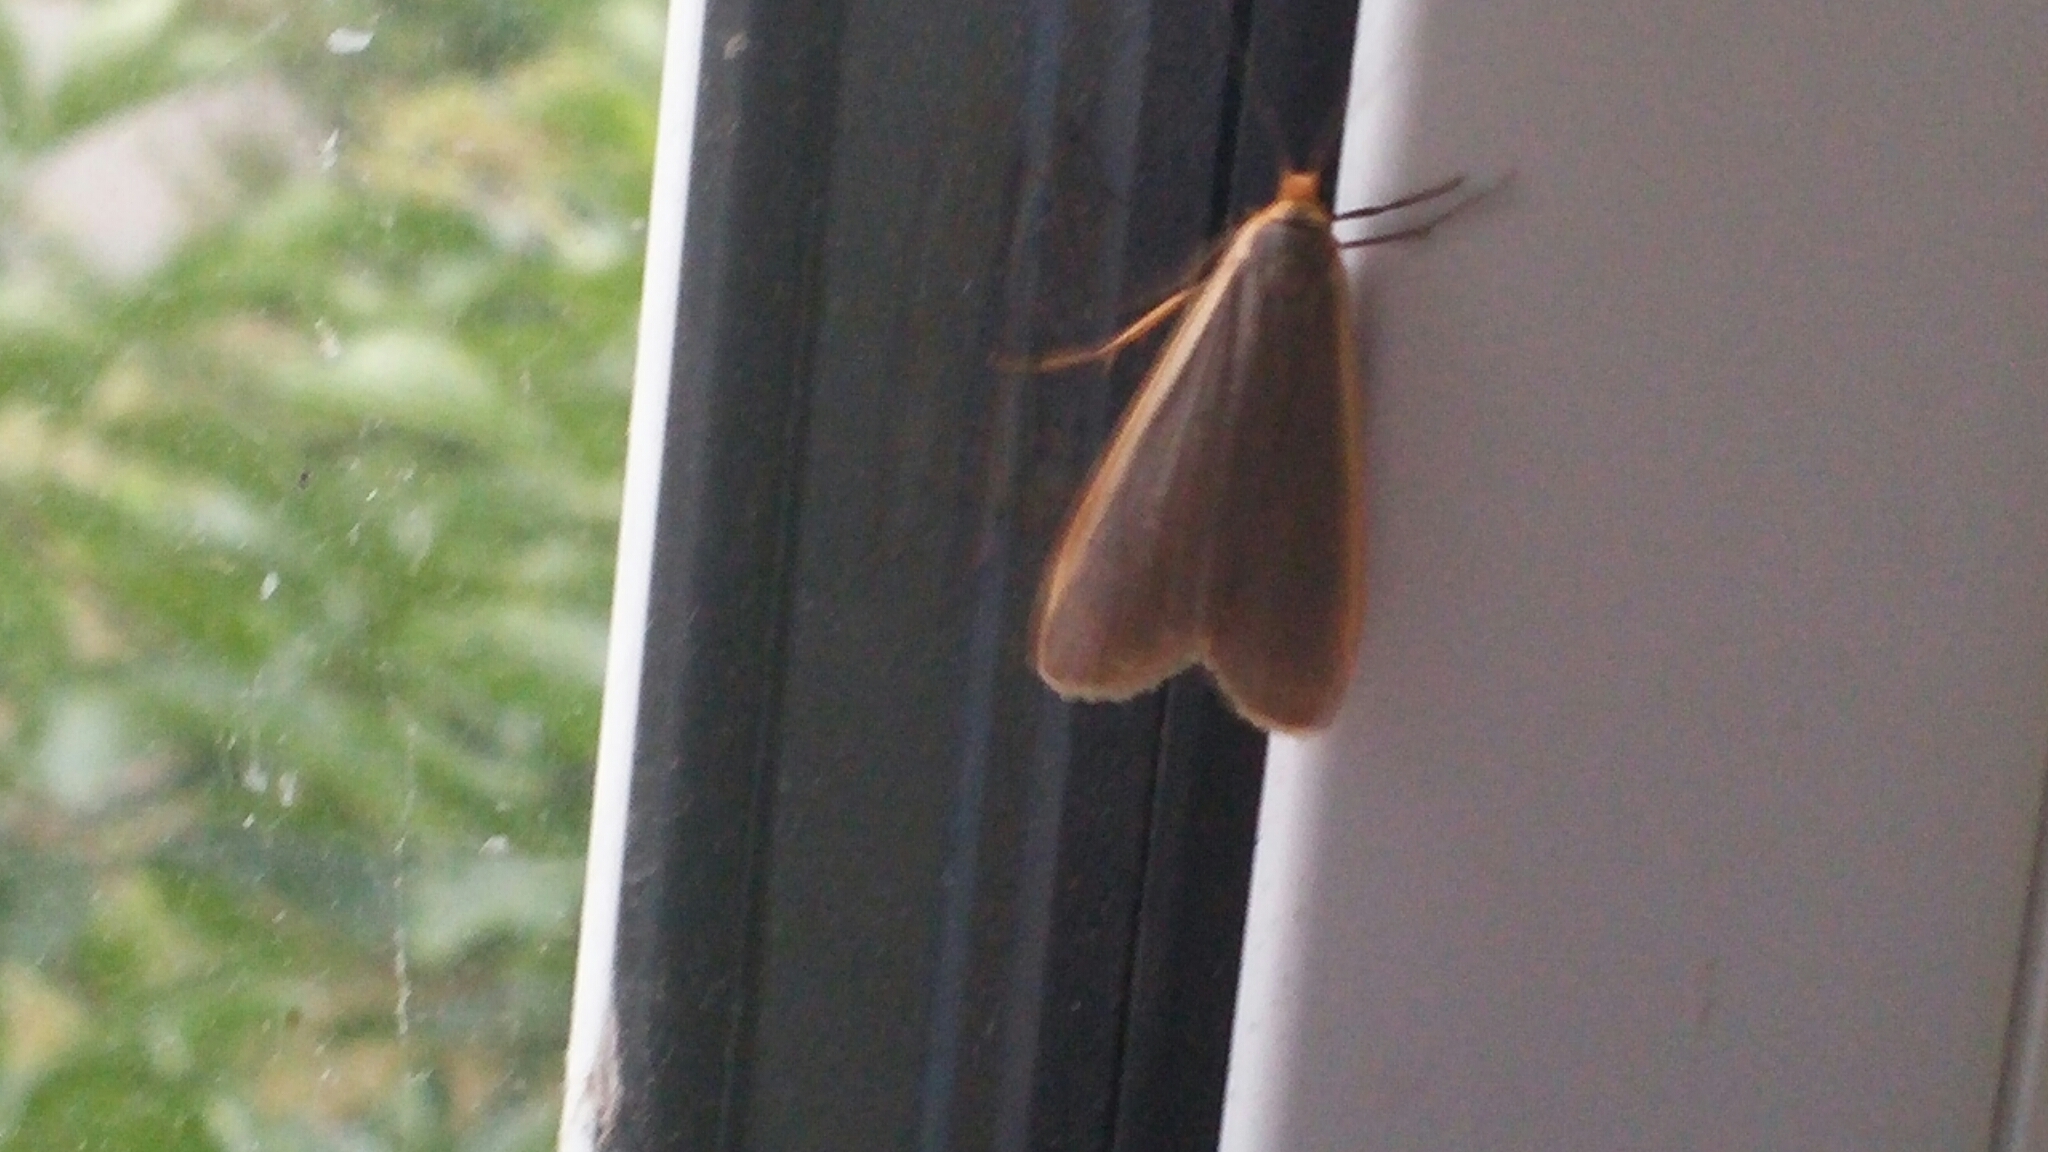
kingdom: Animalia
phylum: Arthropoda
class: Insecta
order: Lepidoptera
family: Erebidae
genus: Nyea
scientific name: Nyea lurideola
